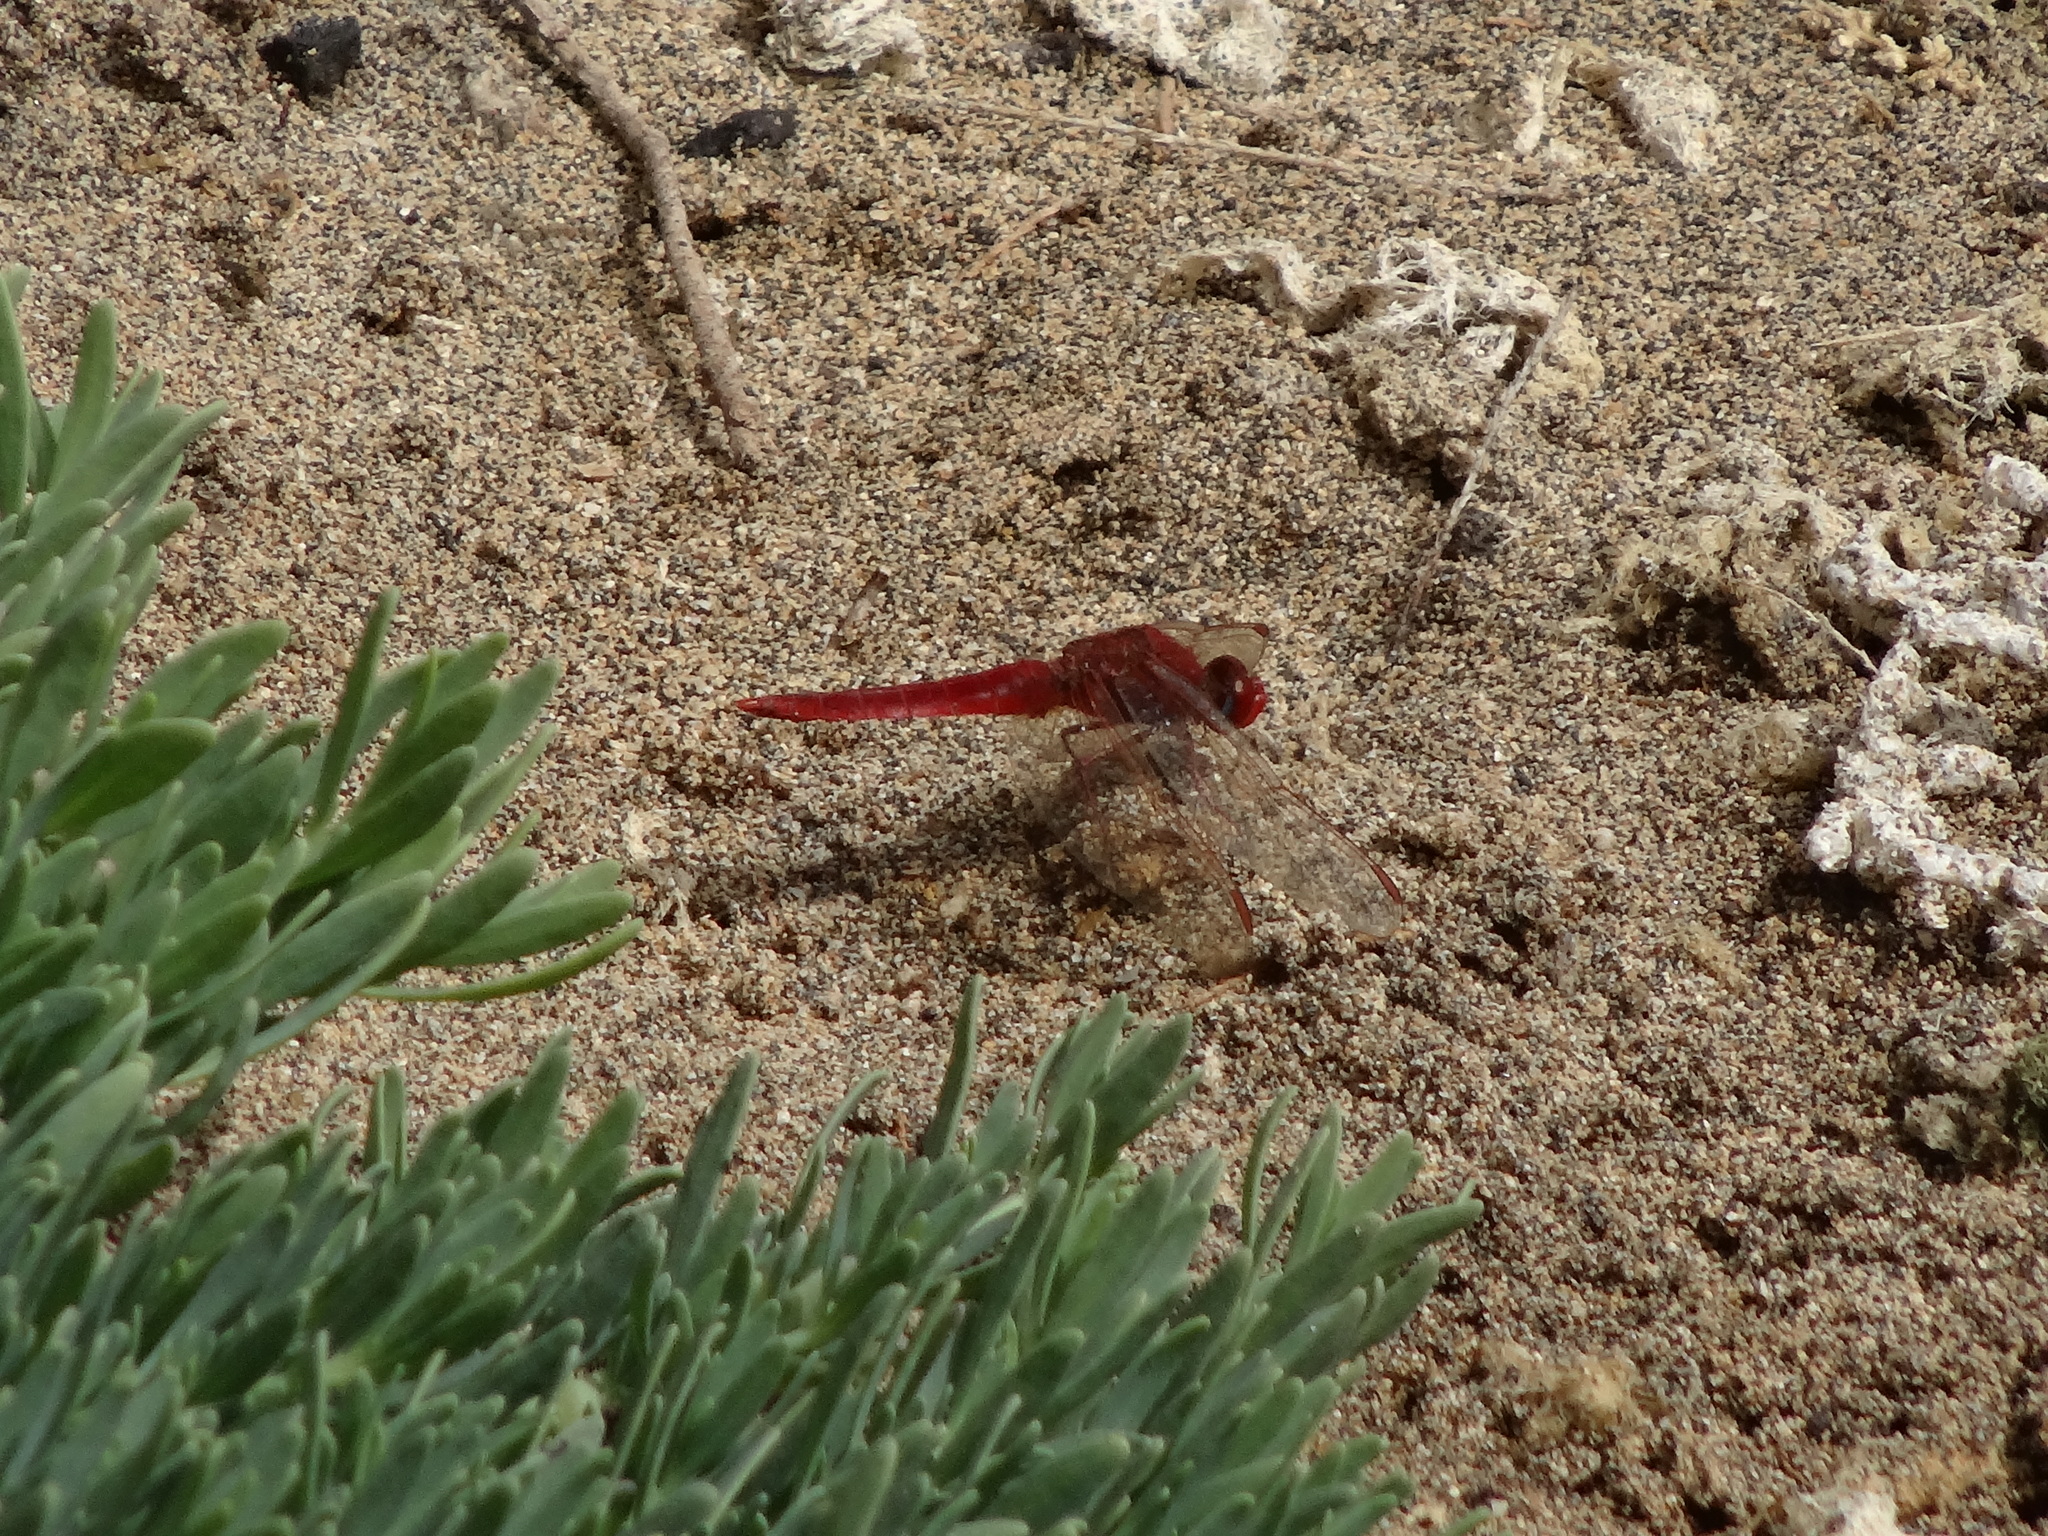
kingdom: Animalia
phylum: Arthropoda
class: Insecta
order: Odonata
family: Libellulidae
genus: Crocothemis
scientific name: Crocothemis erythraea
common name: Scarlet dragonfly
